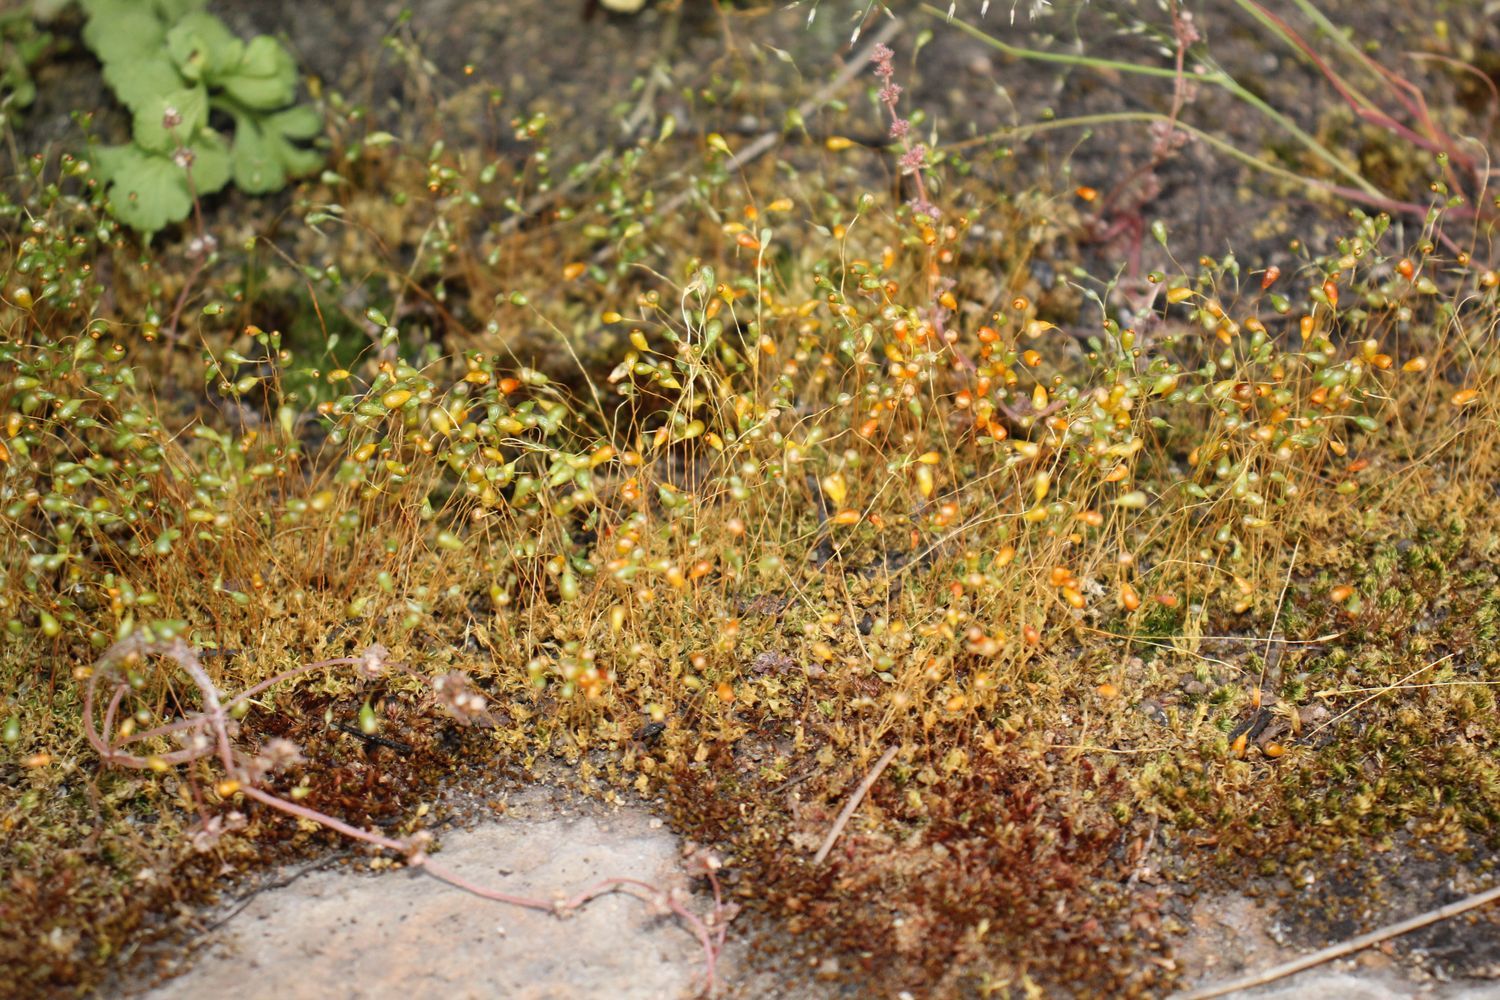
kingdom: Plantae
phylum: Bryophyta
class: Bryopsida
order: Funariales
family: Funariaceae
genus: Funaria
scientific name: Funaria hygrometrica
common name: Common cord moss
